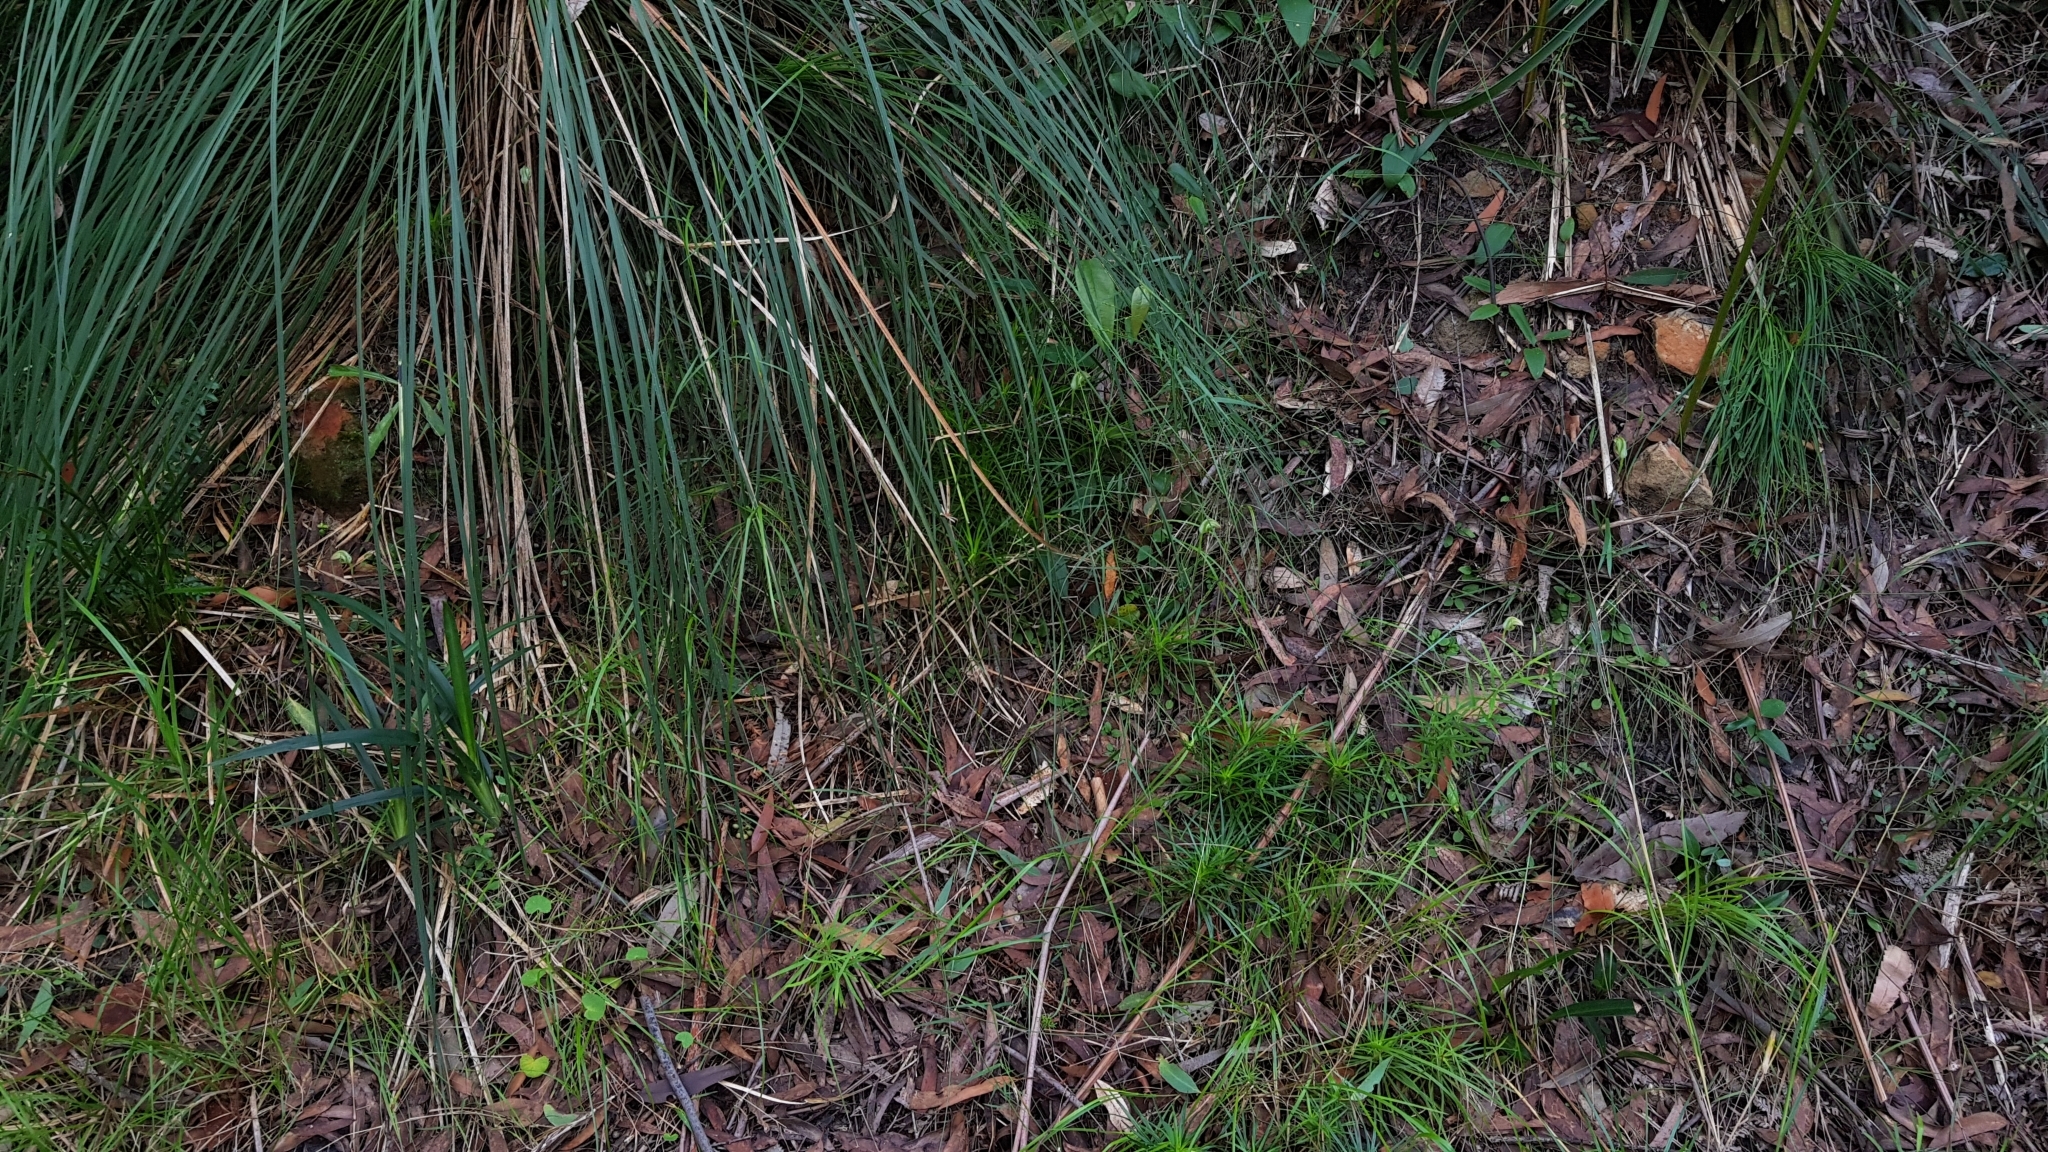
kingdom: Plantae
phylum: Tracheophyta
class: Liliopsida
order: Asparagales
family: Orchidaceae
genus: Pterostylis
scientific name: Pterostylis acuminata
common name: Pointed greenhood
